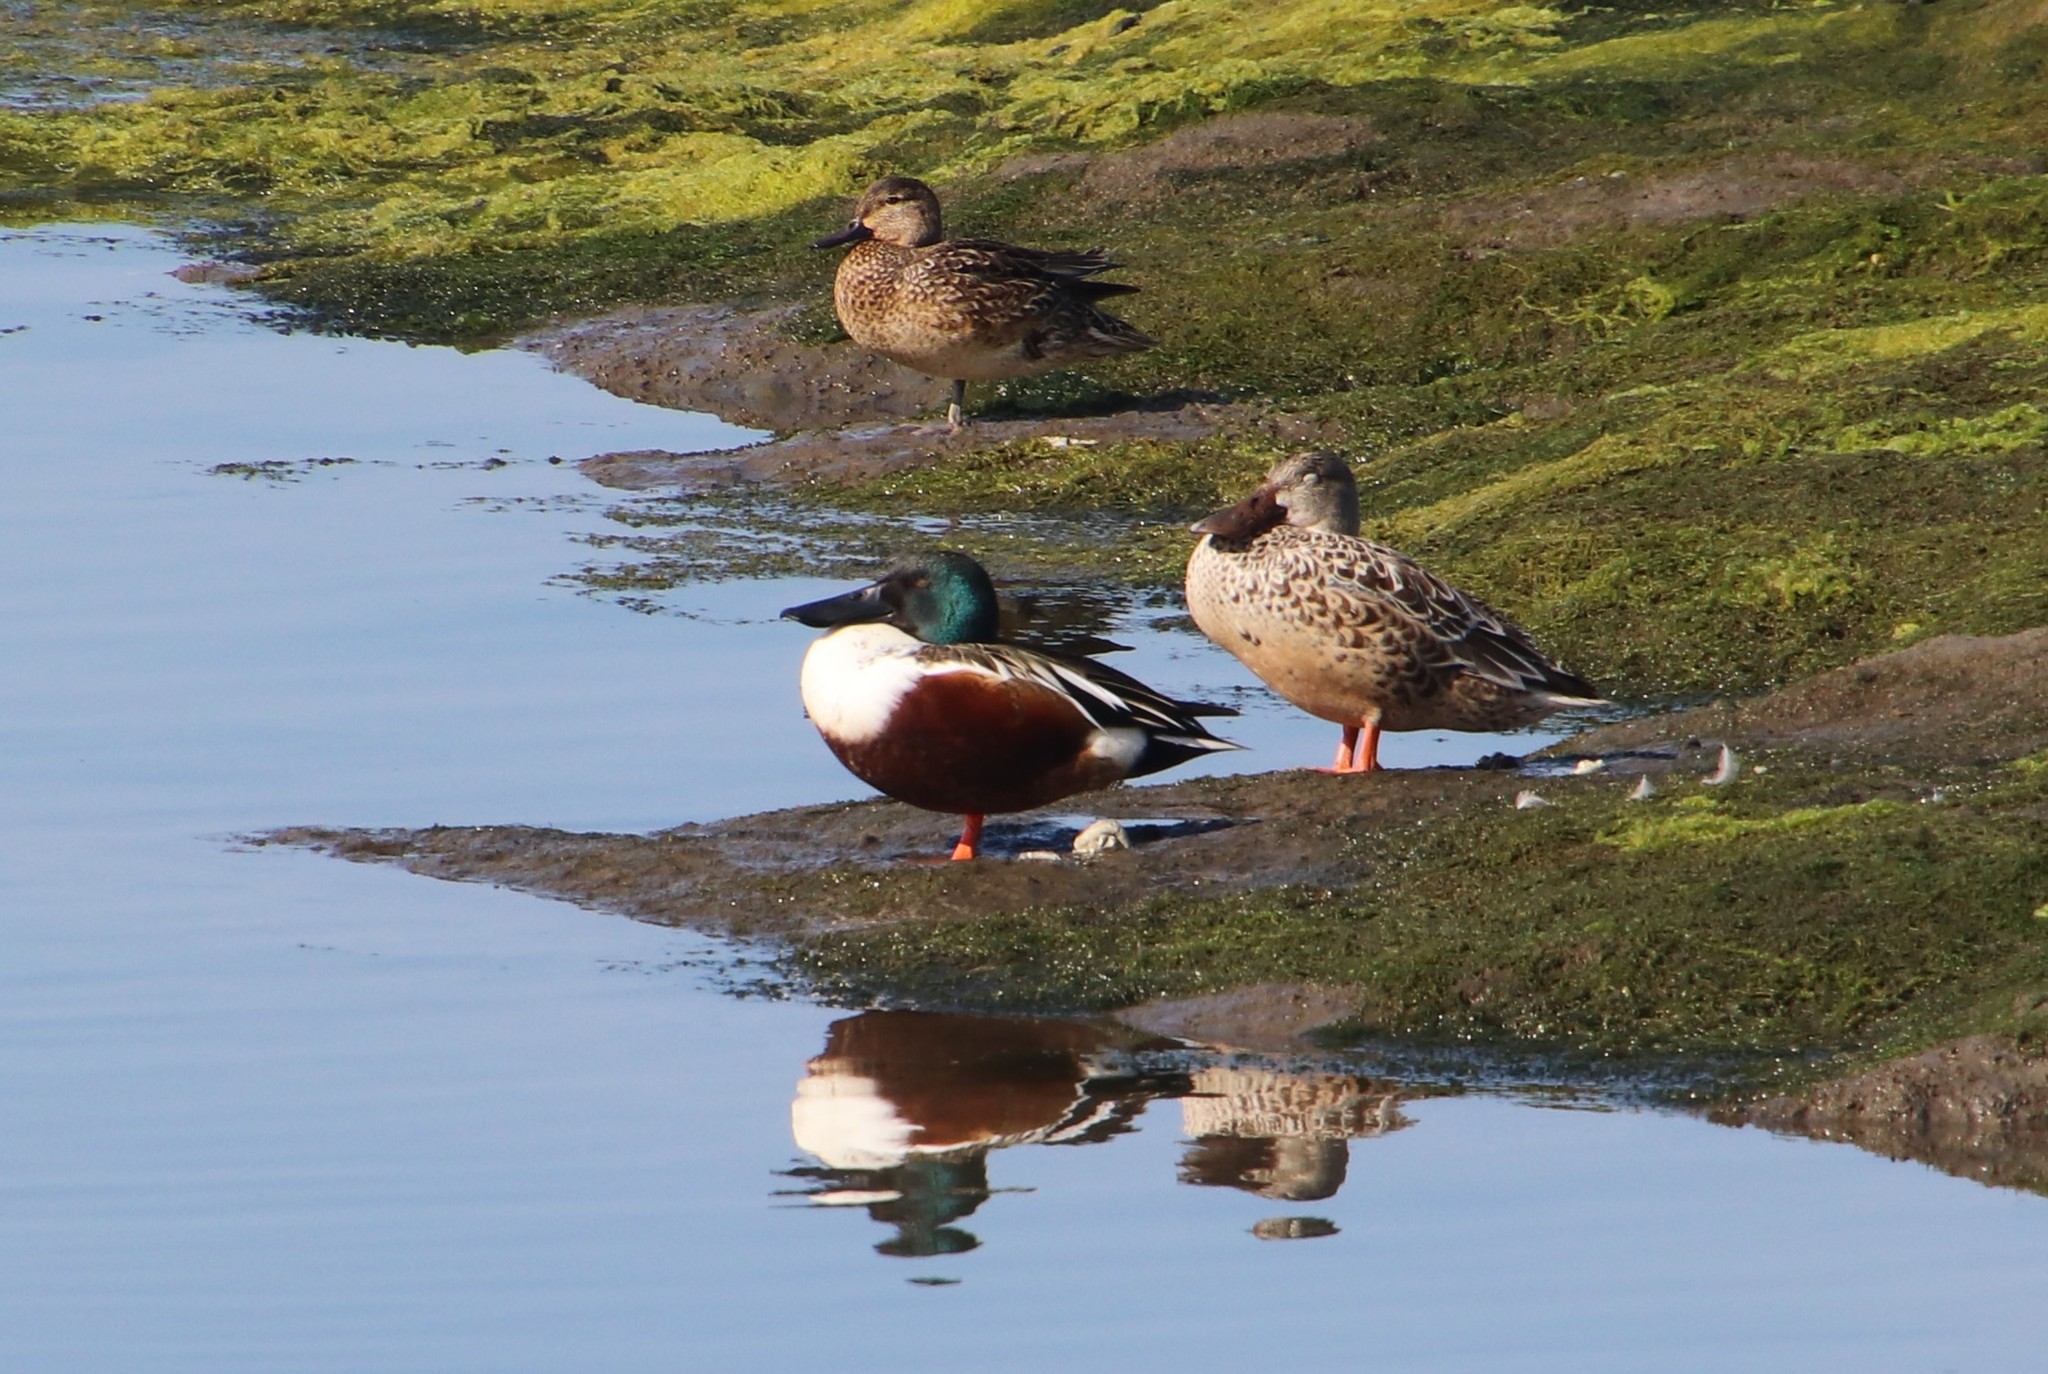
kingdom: Animalia
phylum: Chordata
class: Aves
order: Anseriformes
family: Anatidae
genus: Spatula
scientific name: Spatula clypeata
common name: Northern shoveler
